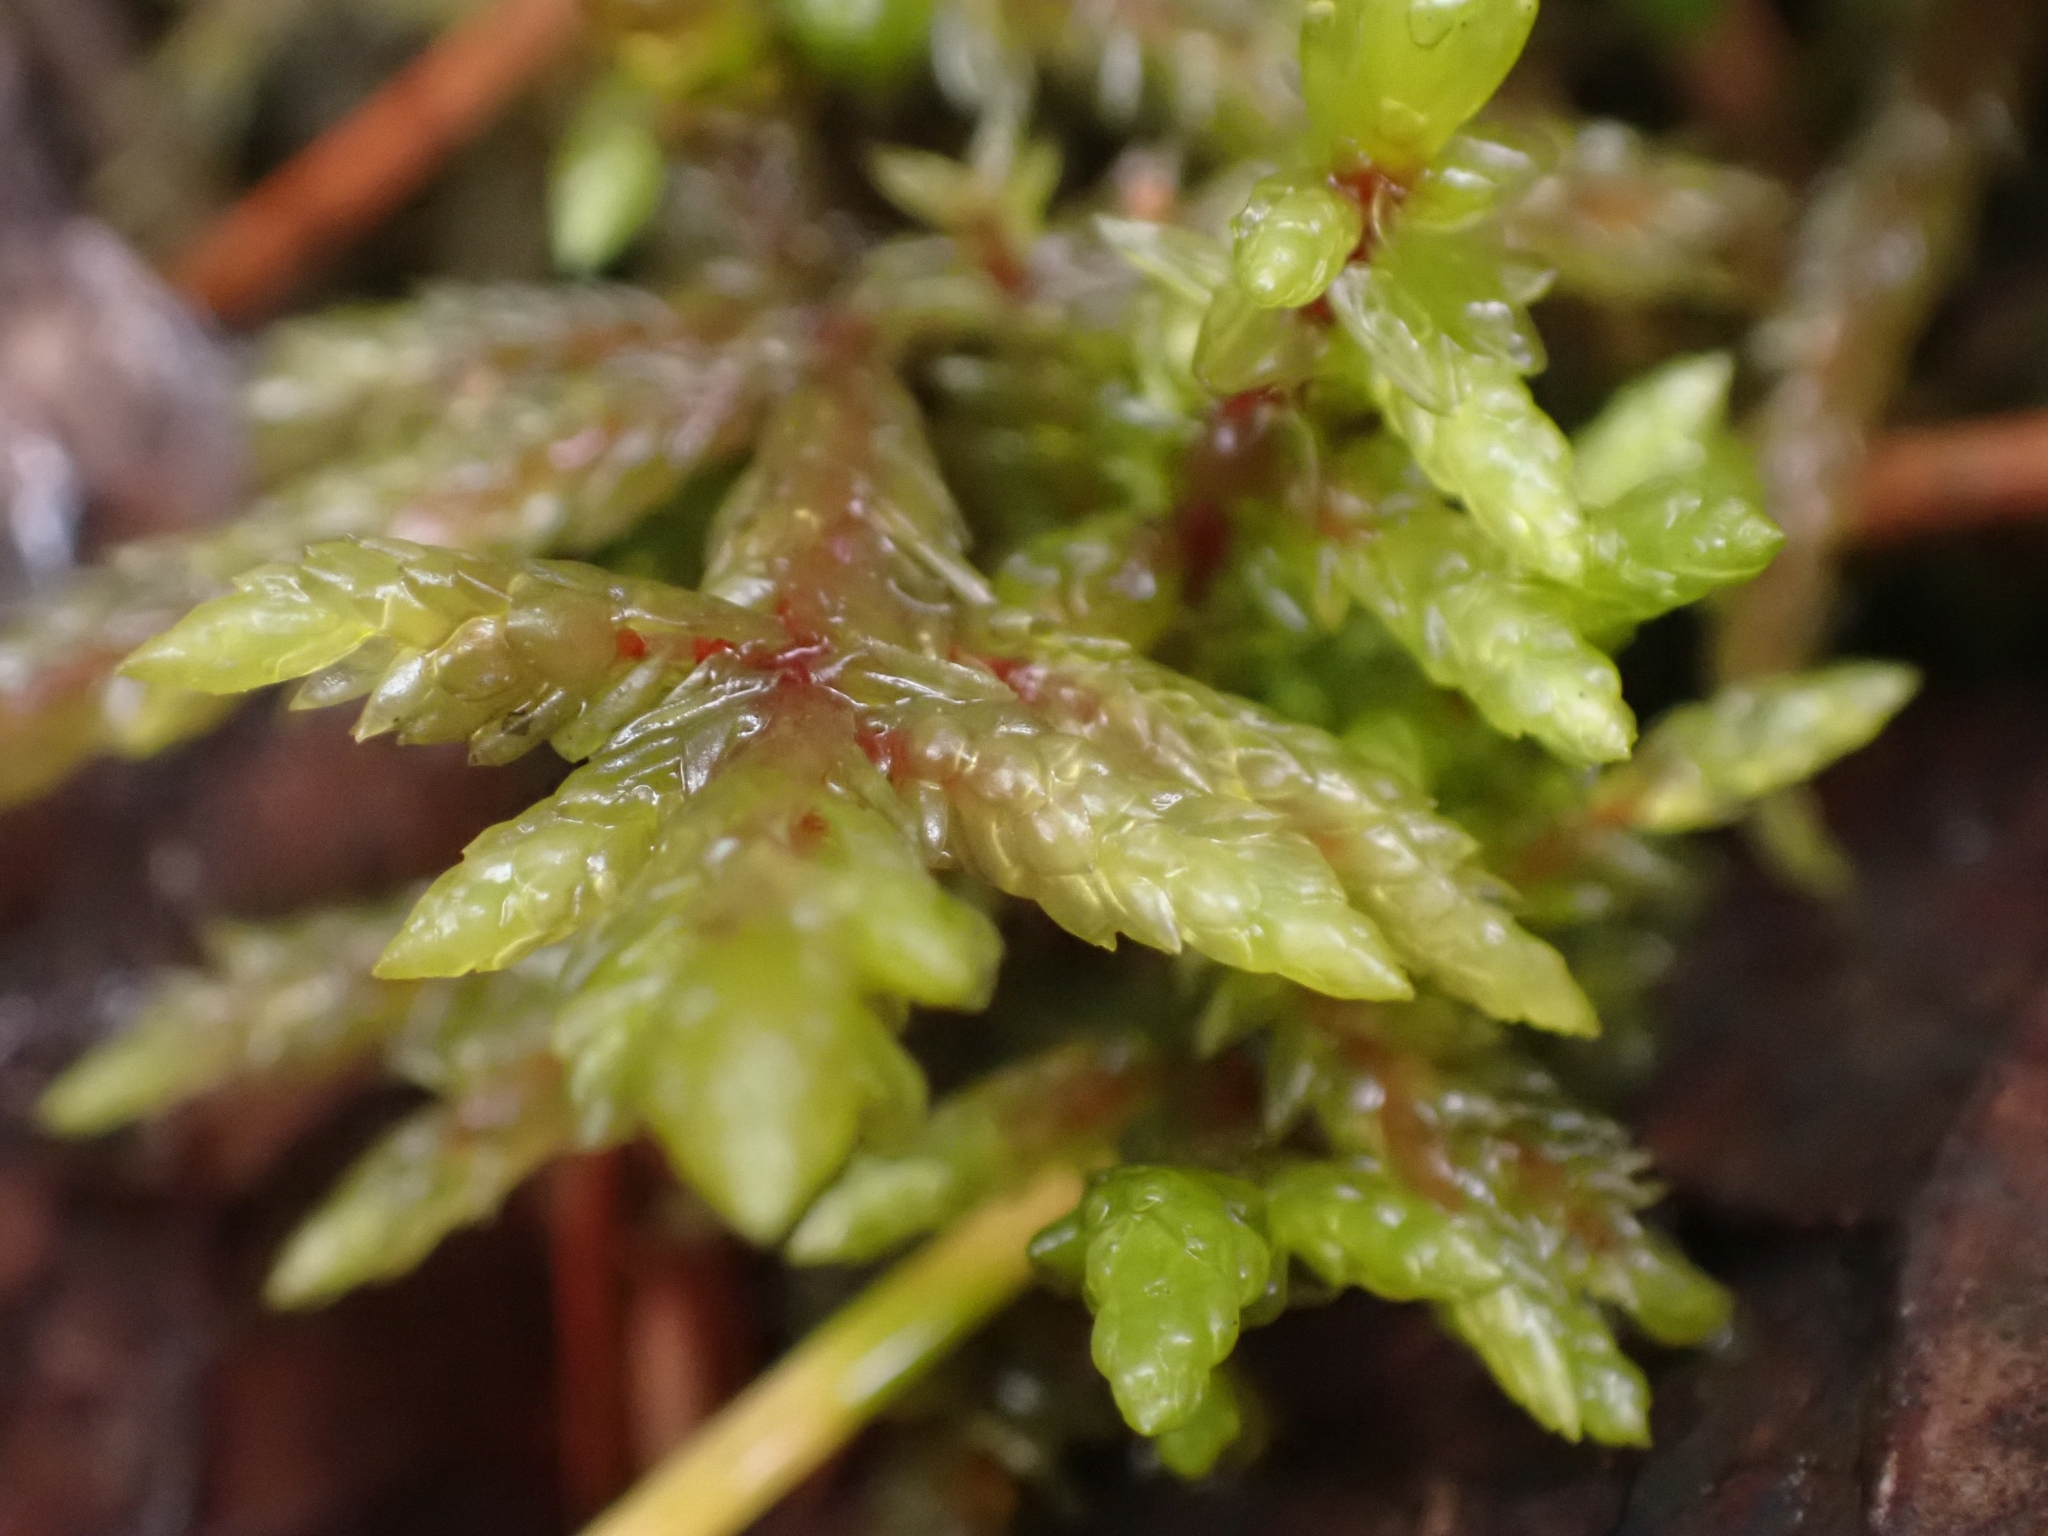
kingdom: Plantae
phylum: Bryophyta
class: Bryopsida
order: Hypnales
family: Hylocomiaceae
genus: Pleurozium
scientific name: Pleurozium schreberi
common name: Red-stemmed feather moss
